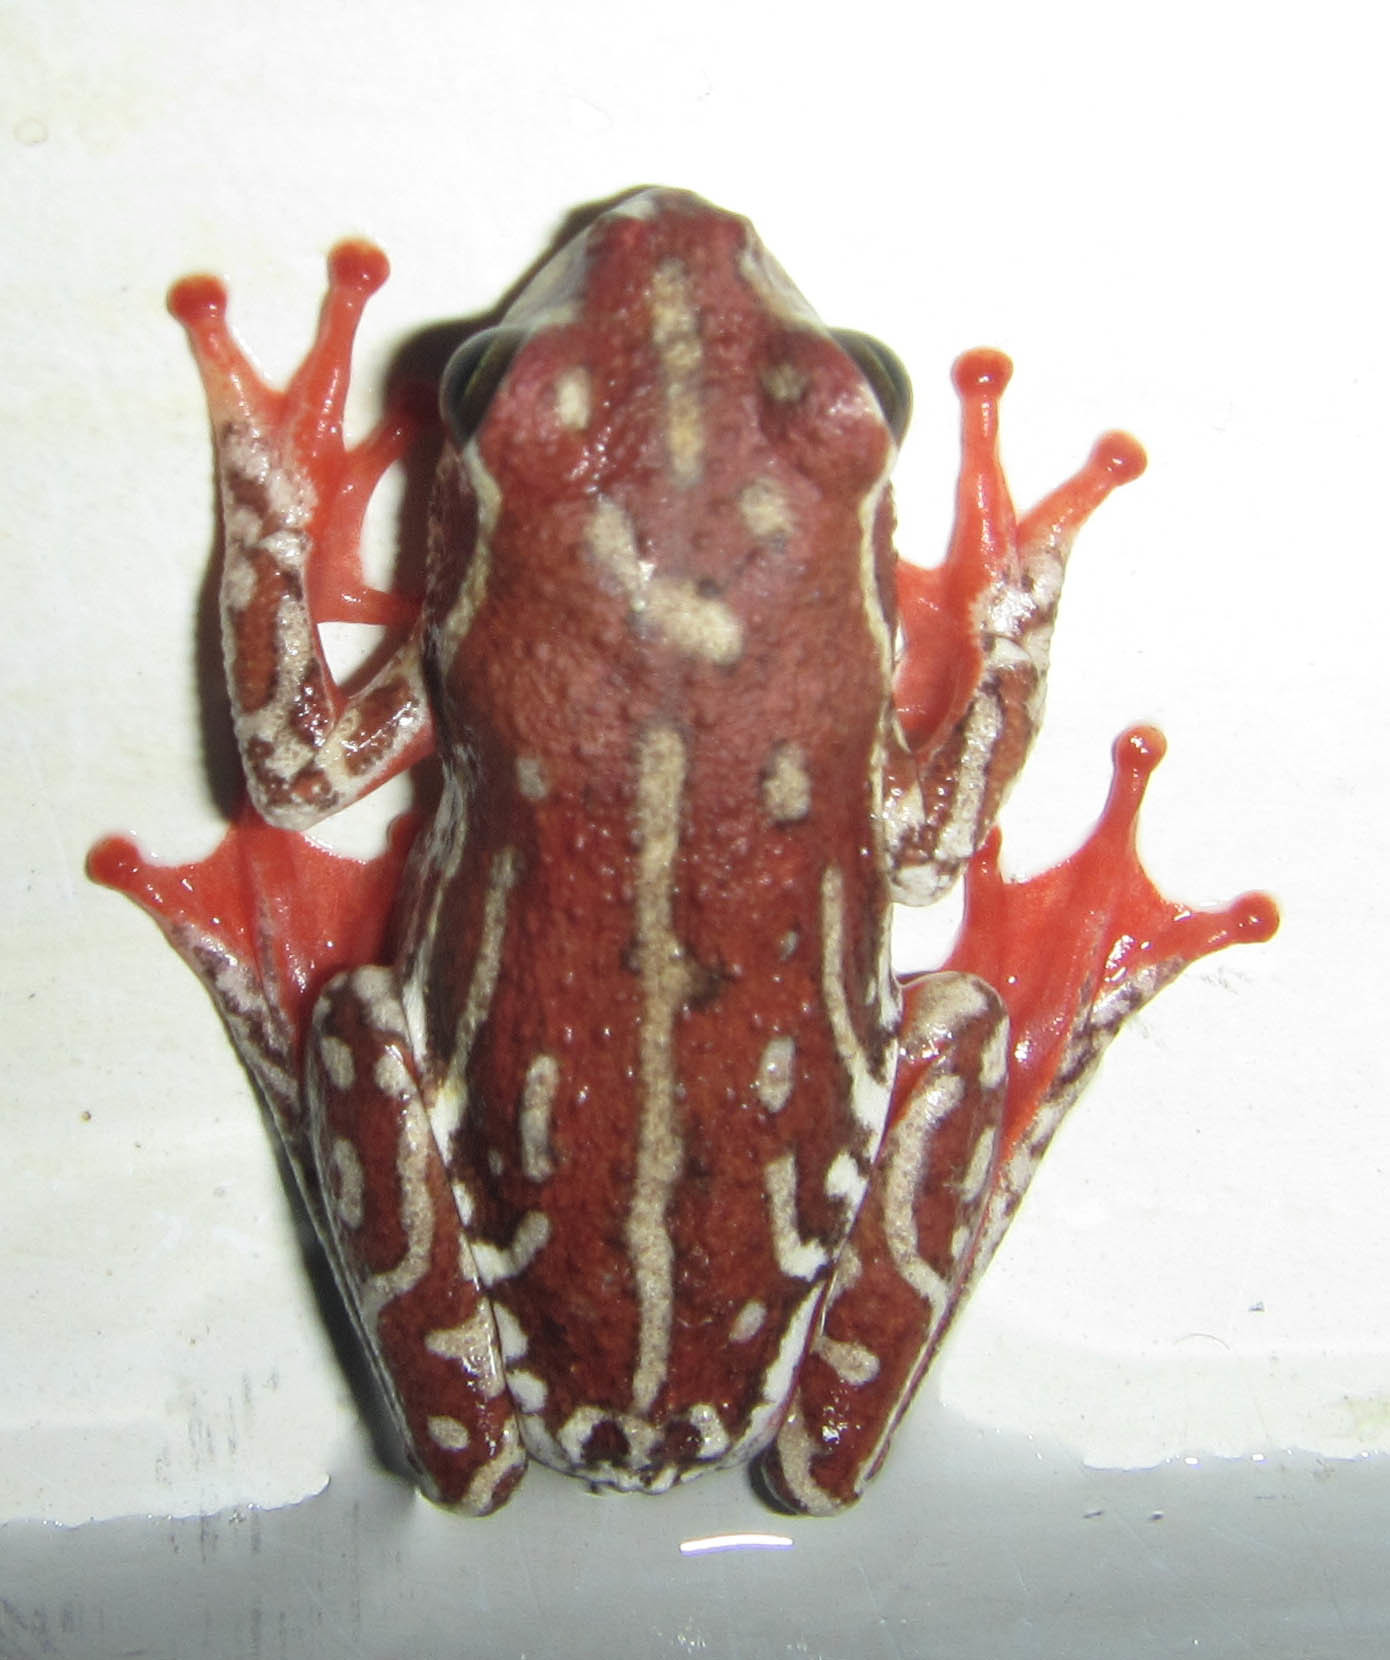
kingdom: Animalia
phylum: Chordata
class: Amphibia
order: Anura
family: Hyperoliidae
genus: Hyperolius
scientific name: Hyperolius parallelus
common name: Angolan reed frog
